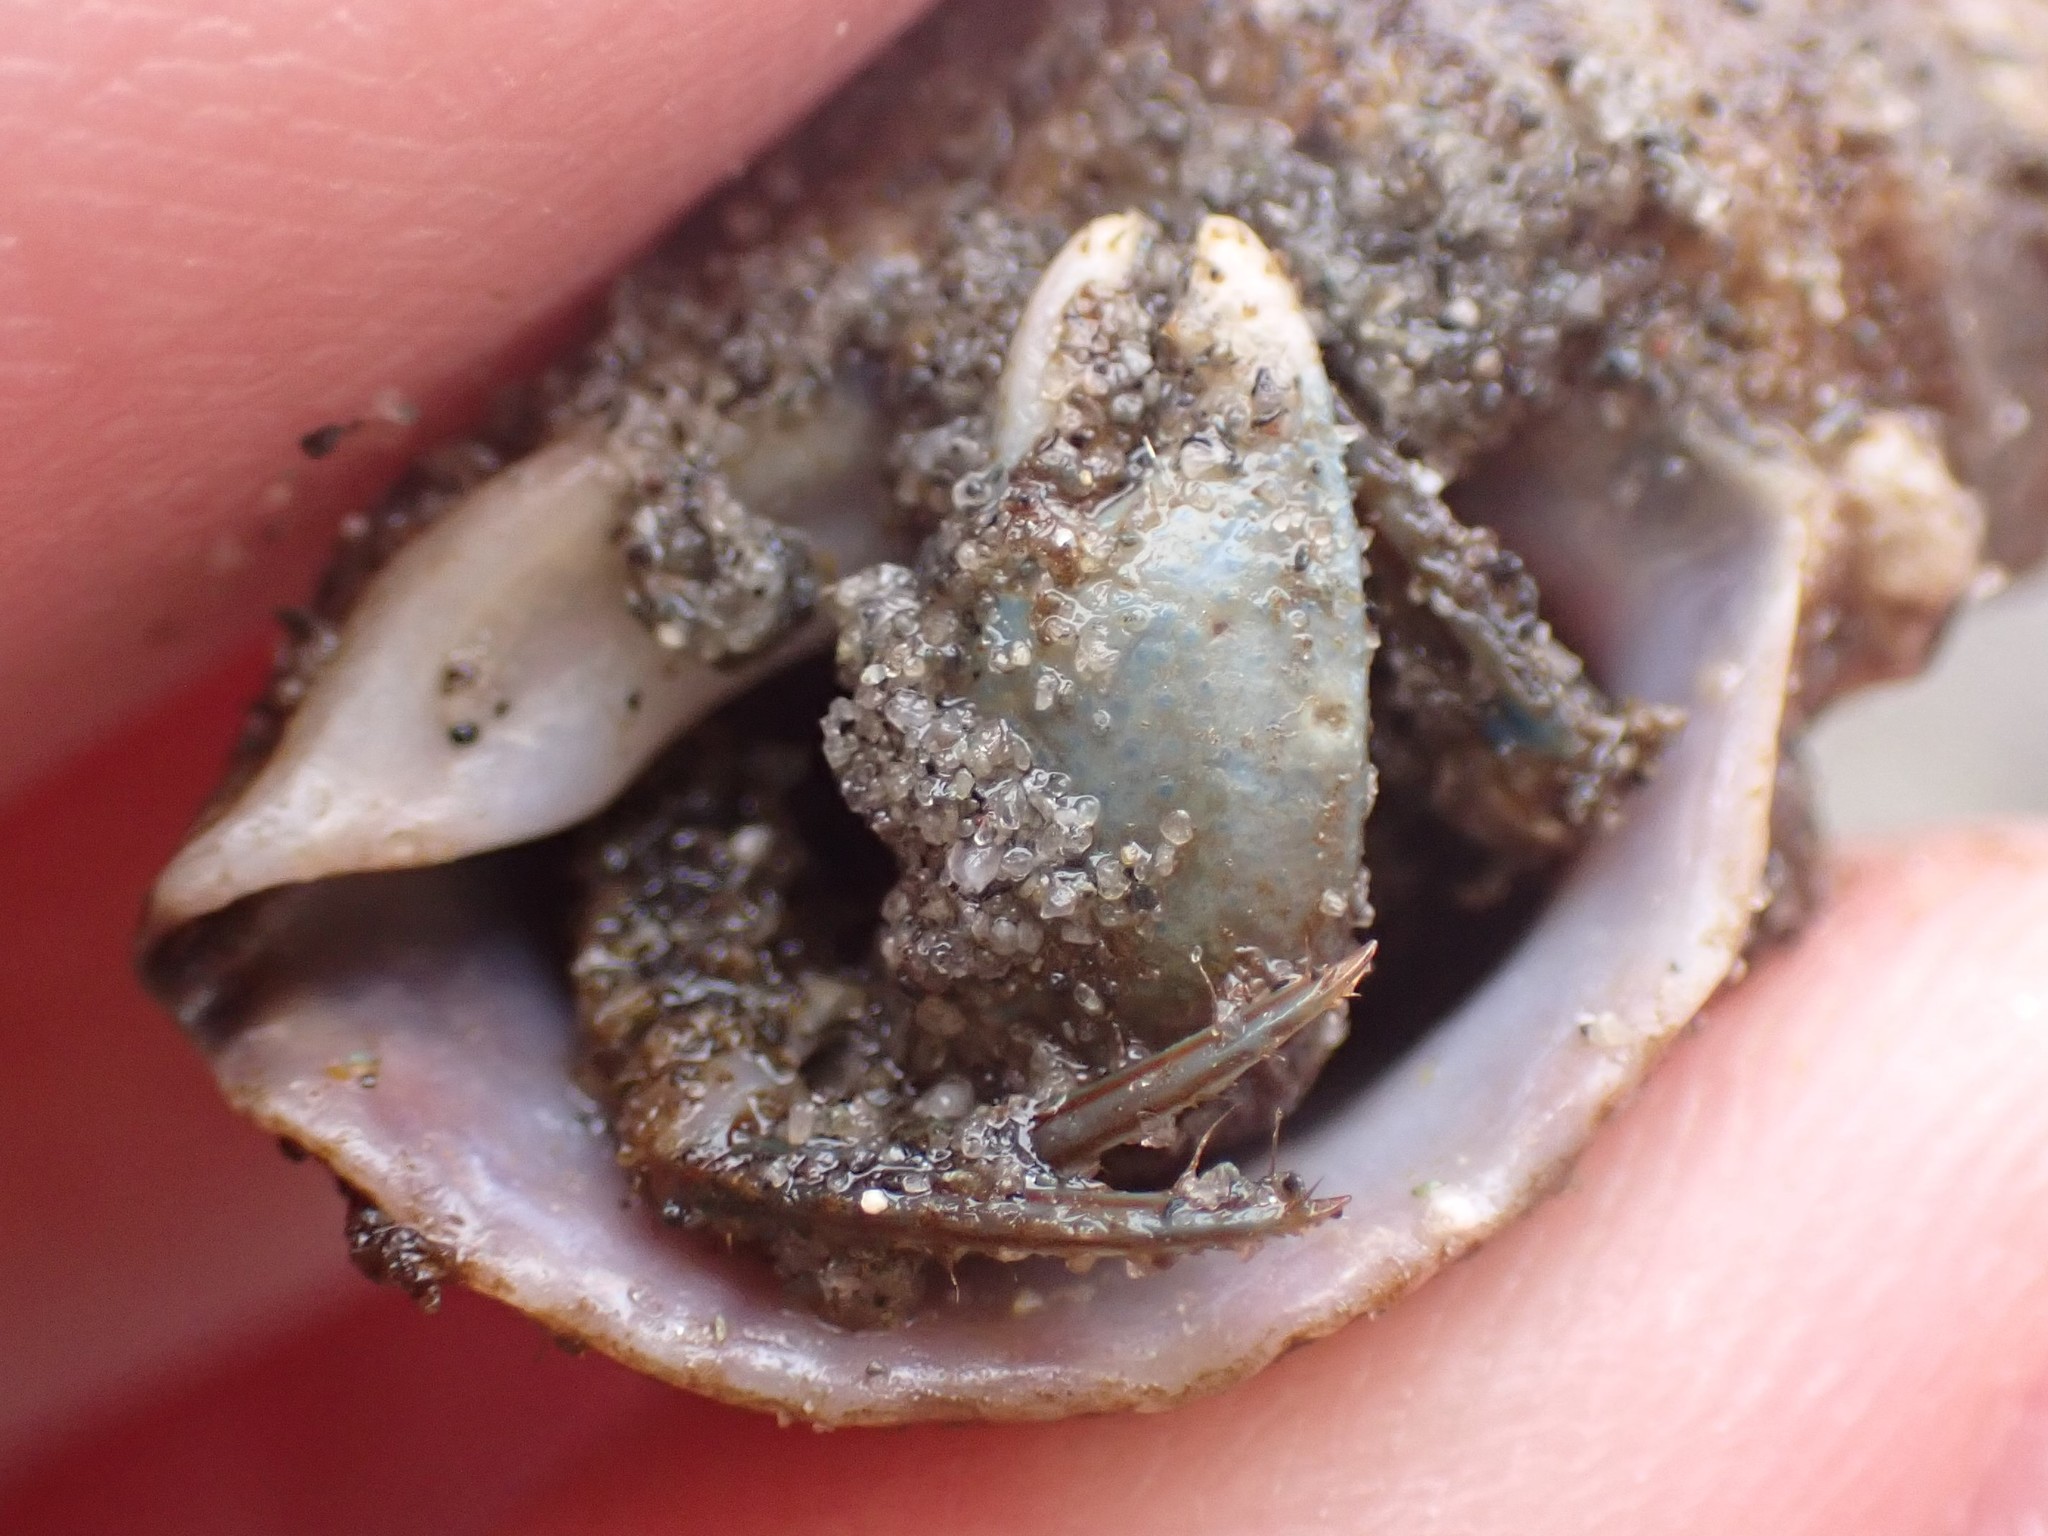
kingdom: Animalia
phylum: Arthropoda
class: Malacostraca
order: Decapoda
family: Paguridae
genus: Pagurus
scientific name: Pagurus hirsutiusculus
